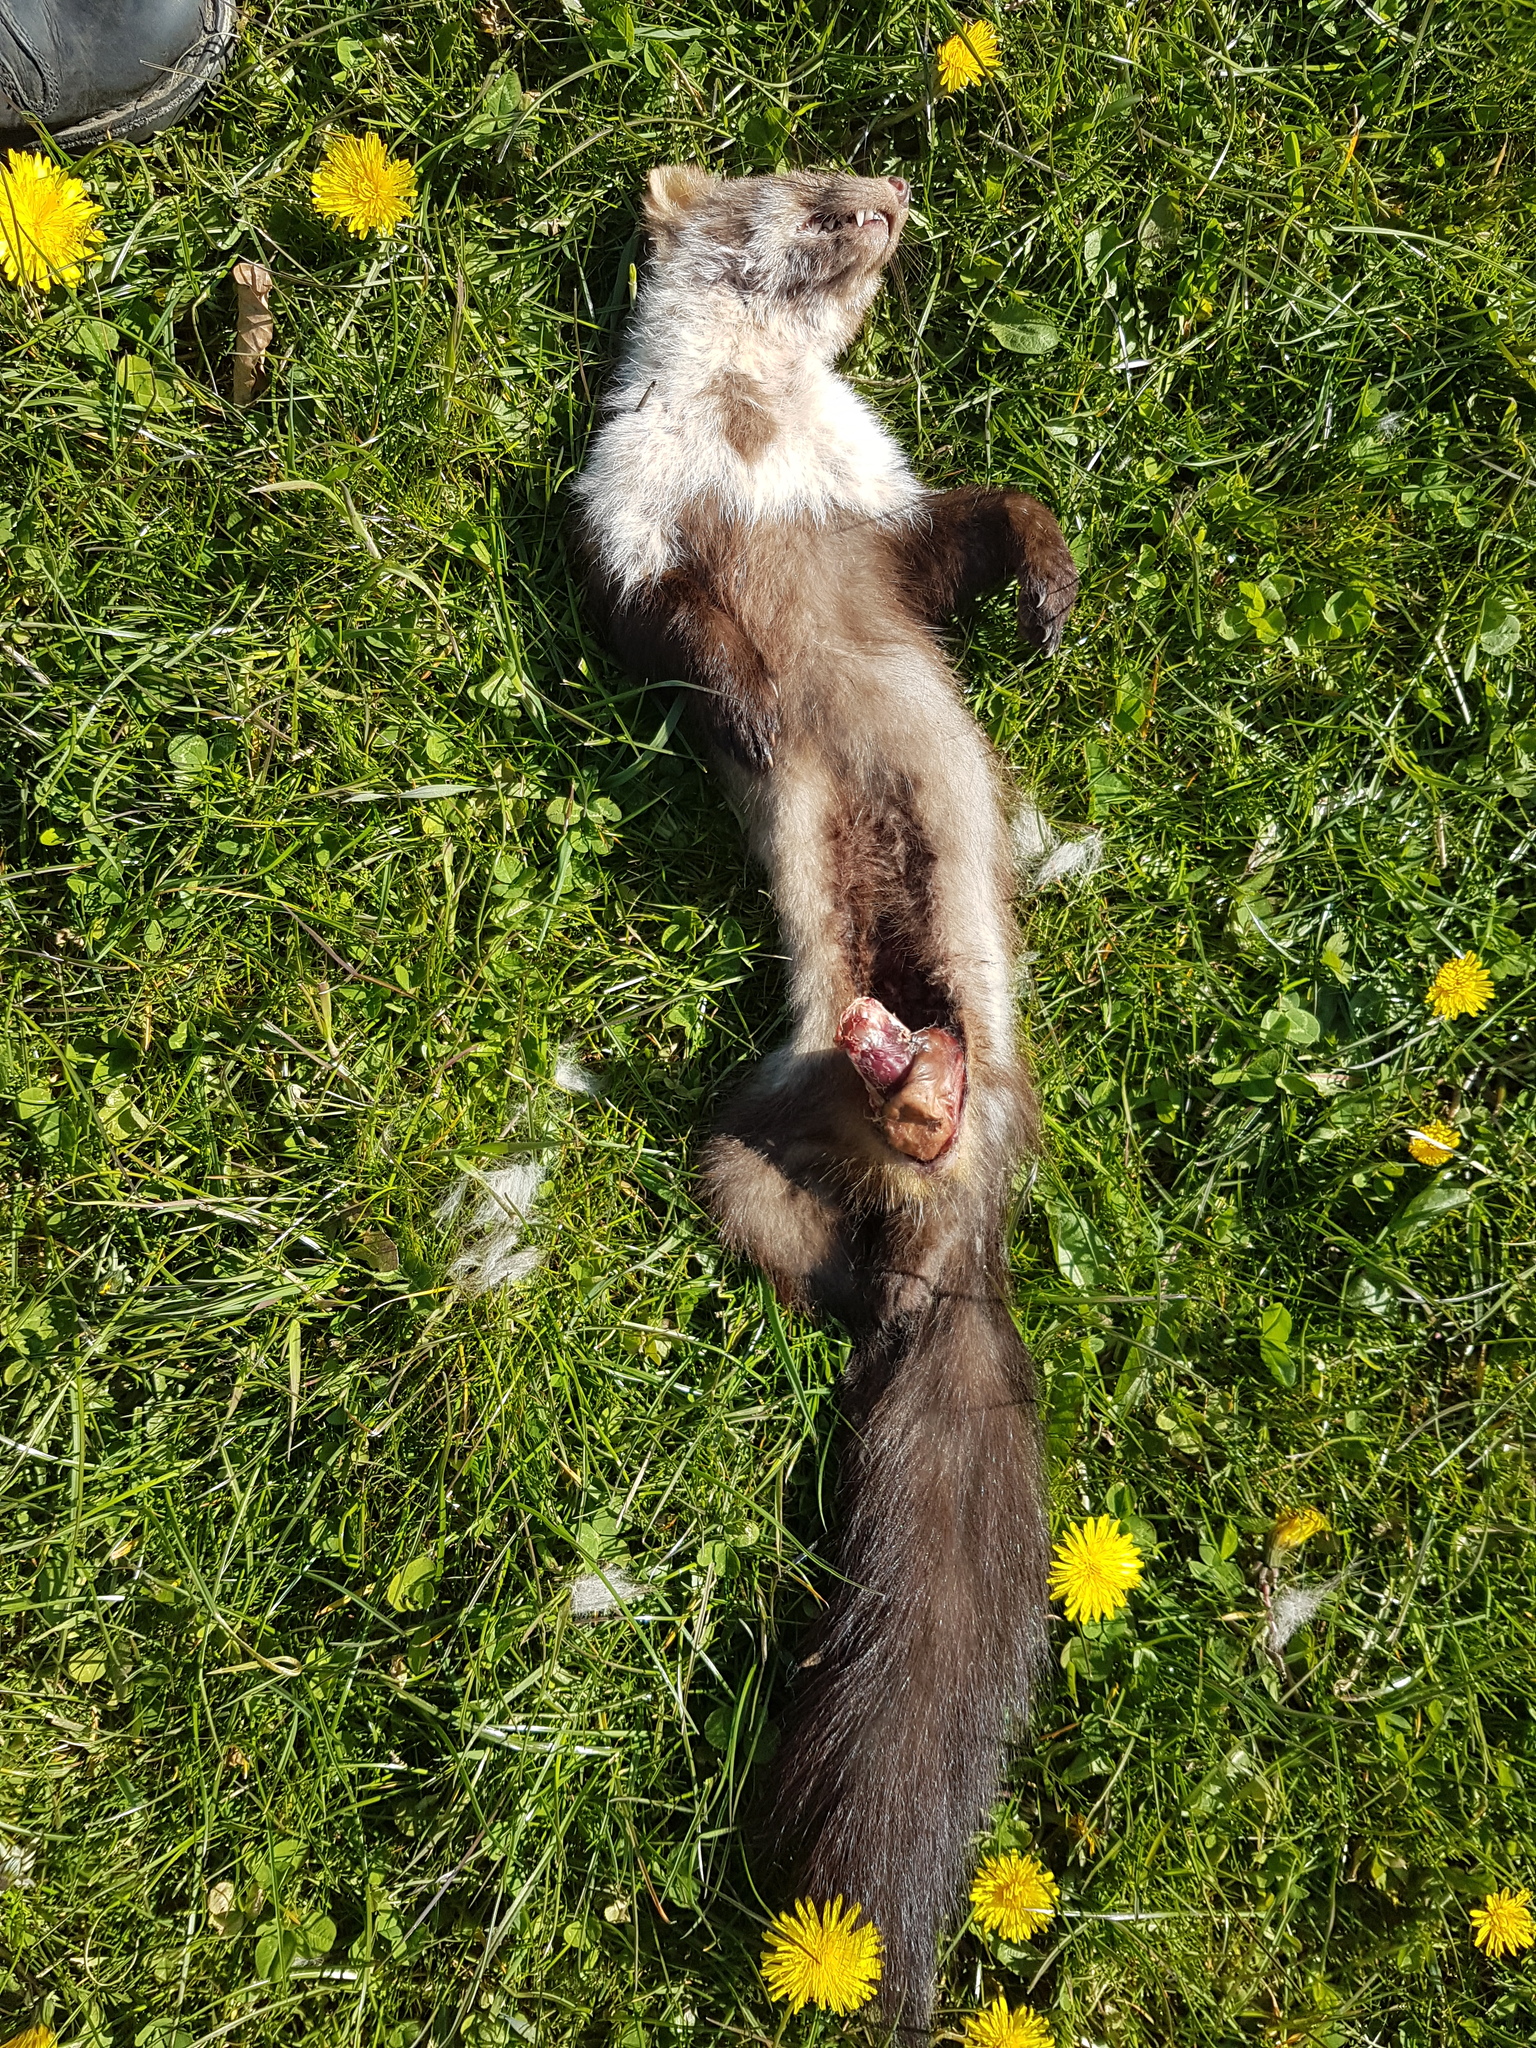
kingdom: Animalia
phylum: Chordata
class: Mammalia
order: Carnivora
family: Mustelidae
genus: Martes
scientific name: Martes foina
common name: Beech marten
